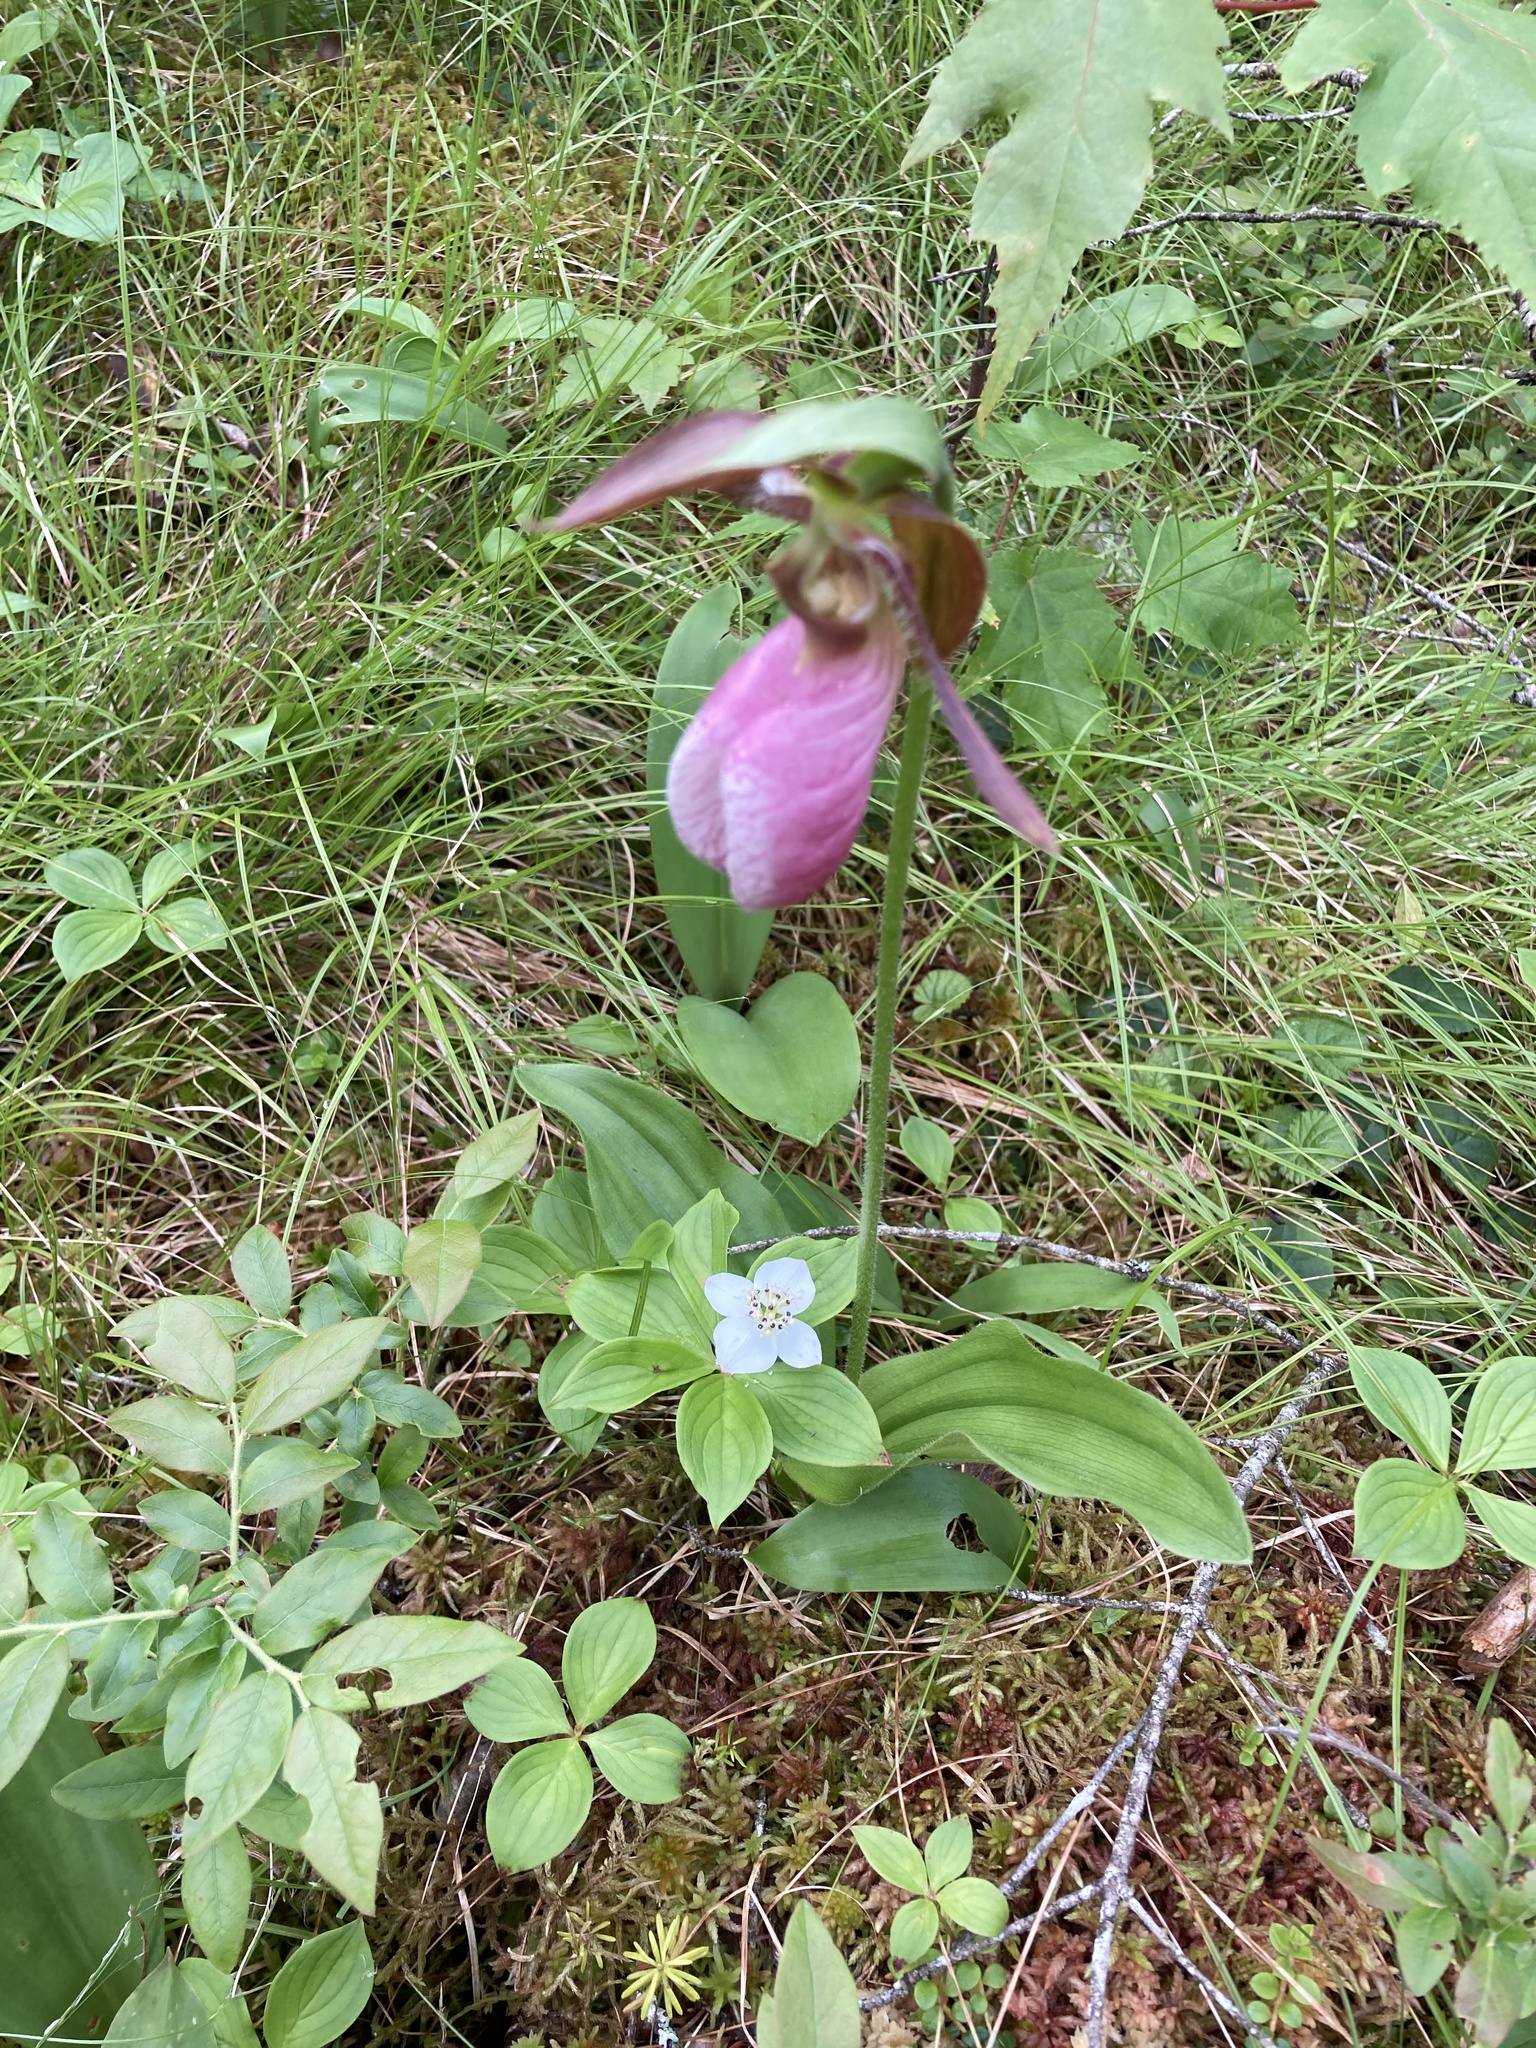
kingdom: Plantae
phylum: Tracheophyta
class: Liliopsida
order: Asparagales
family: Orchidaceae
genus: Cypripedium
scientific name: Cypripedium acaule
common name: Pink lady's-slipper
